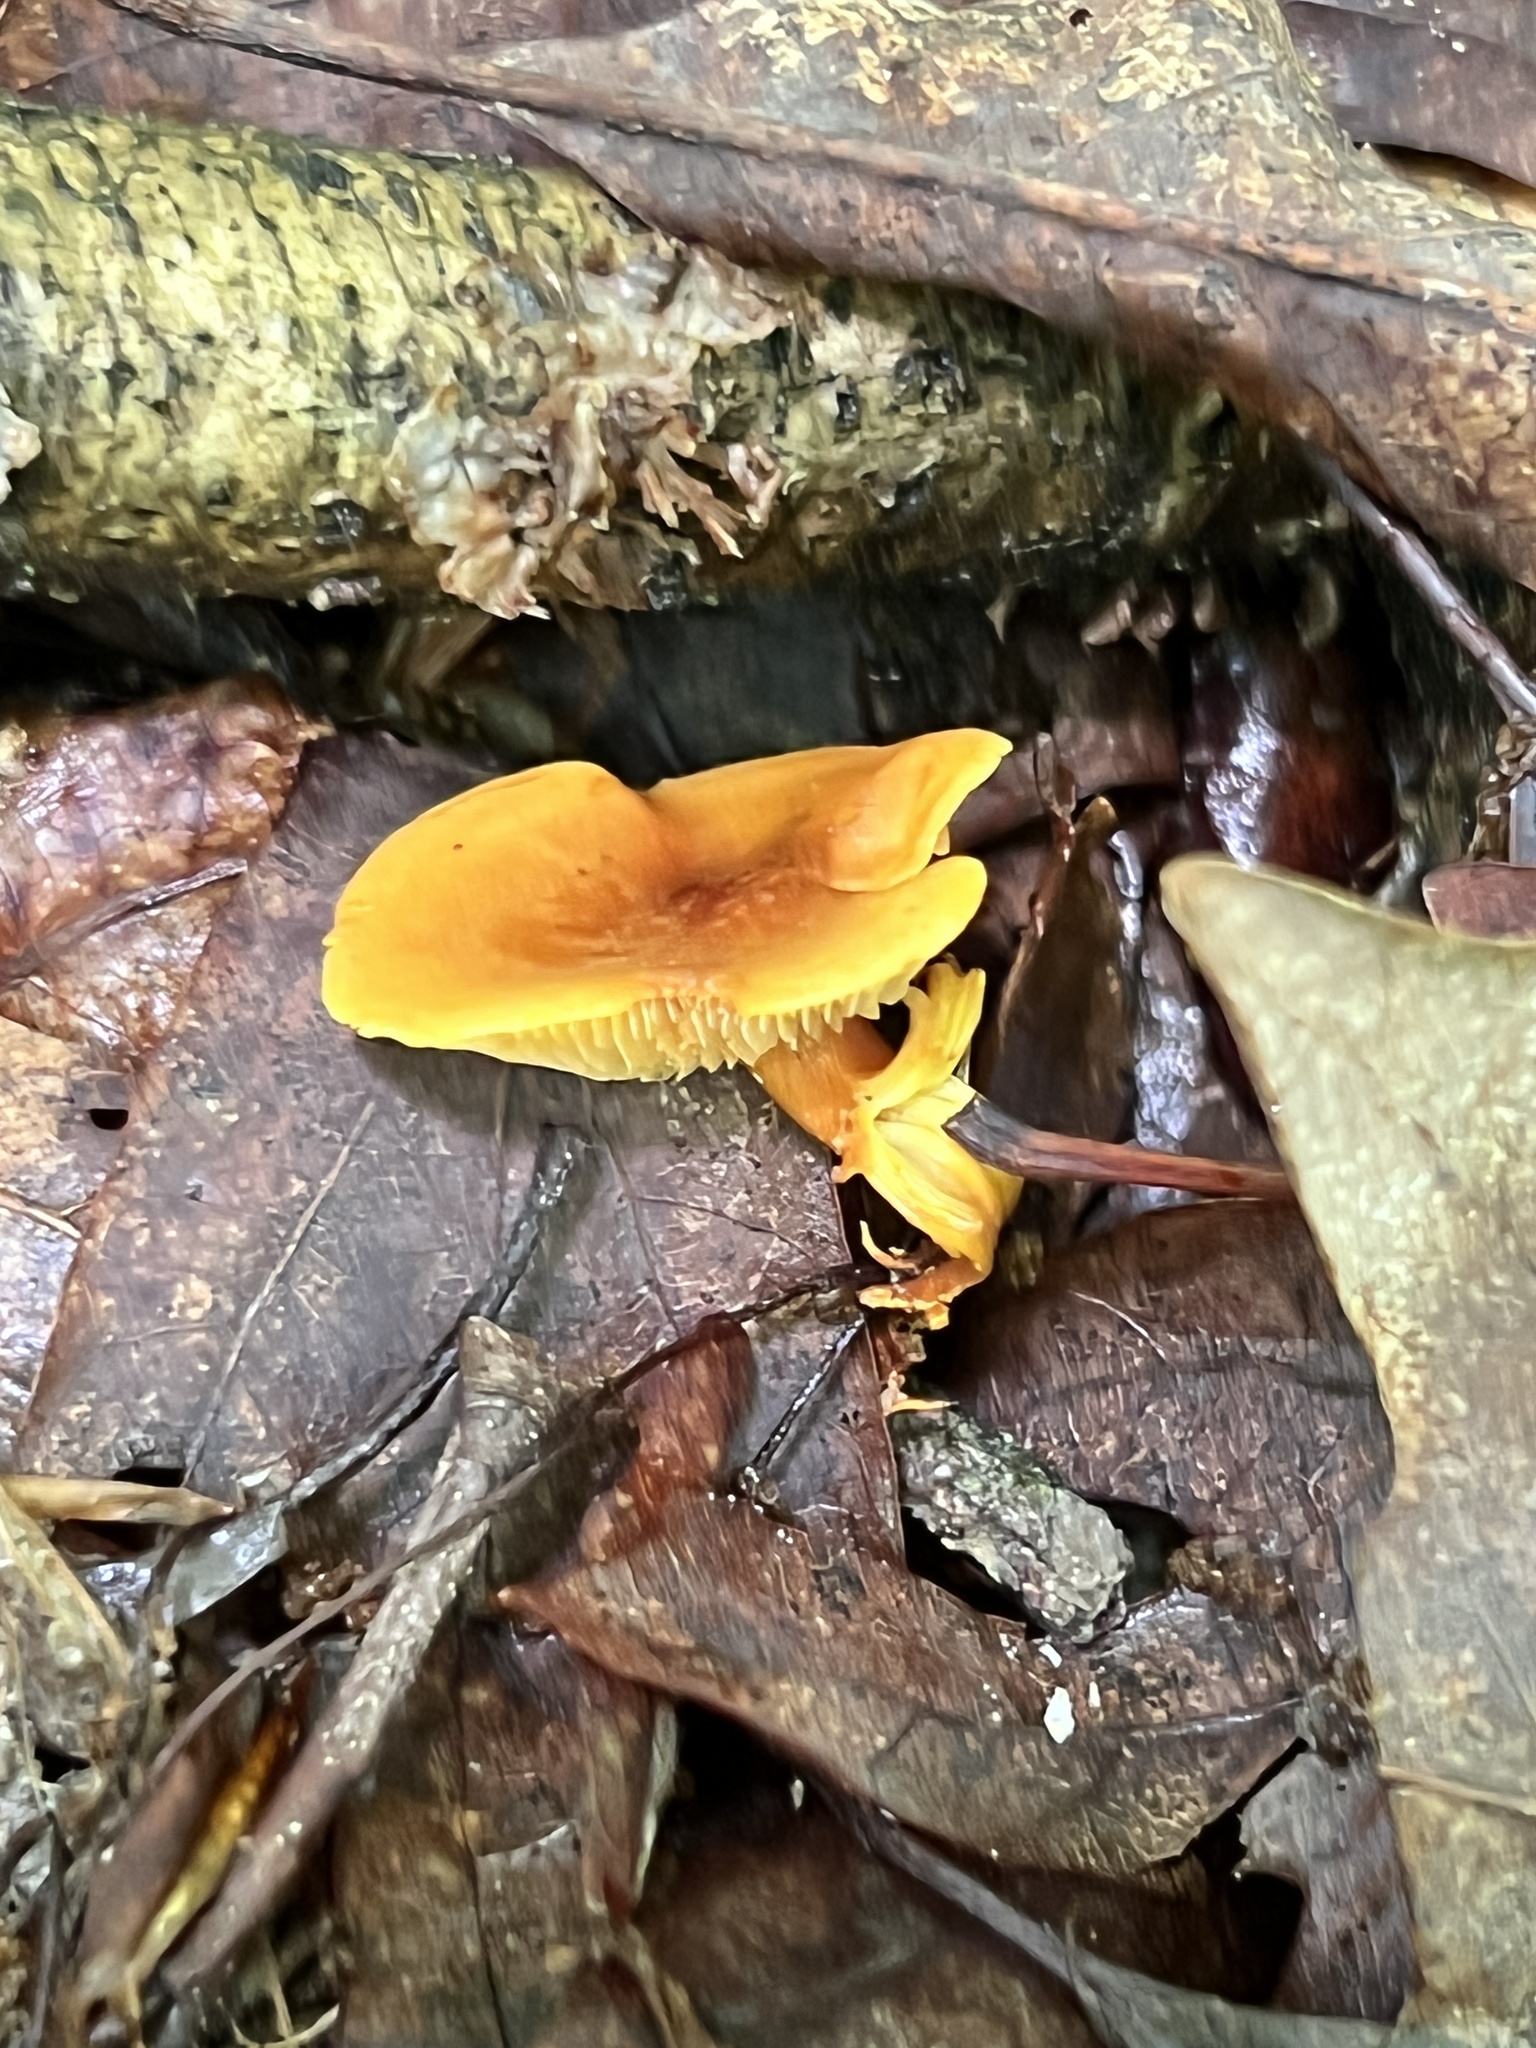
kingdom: Fungi
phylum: Basidiomycota
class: Agaricomycetes
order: Agaricales
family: Mycenaceae
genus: Xeromphalina
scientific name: Xeromphalina tenuipes
